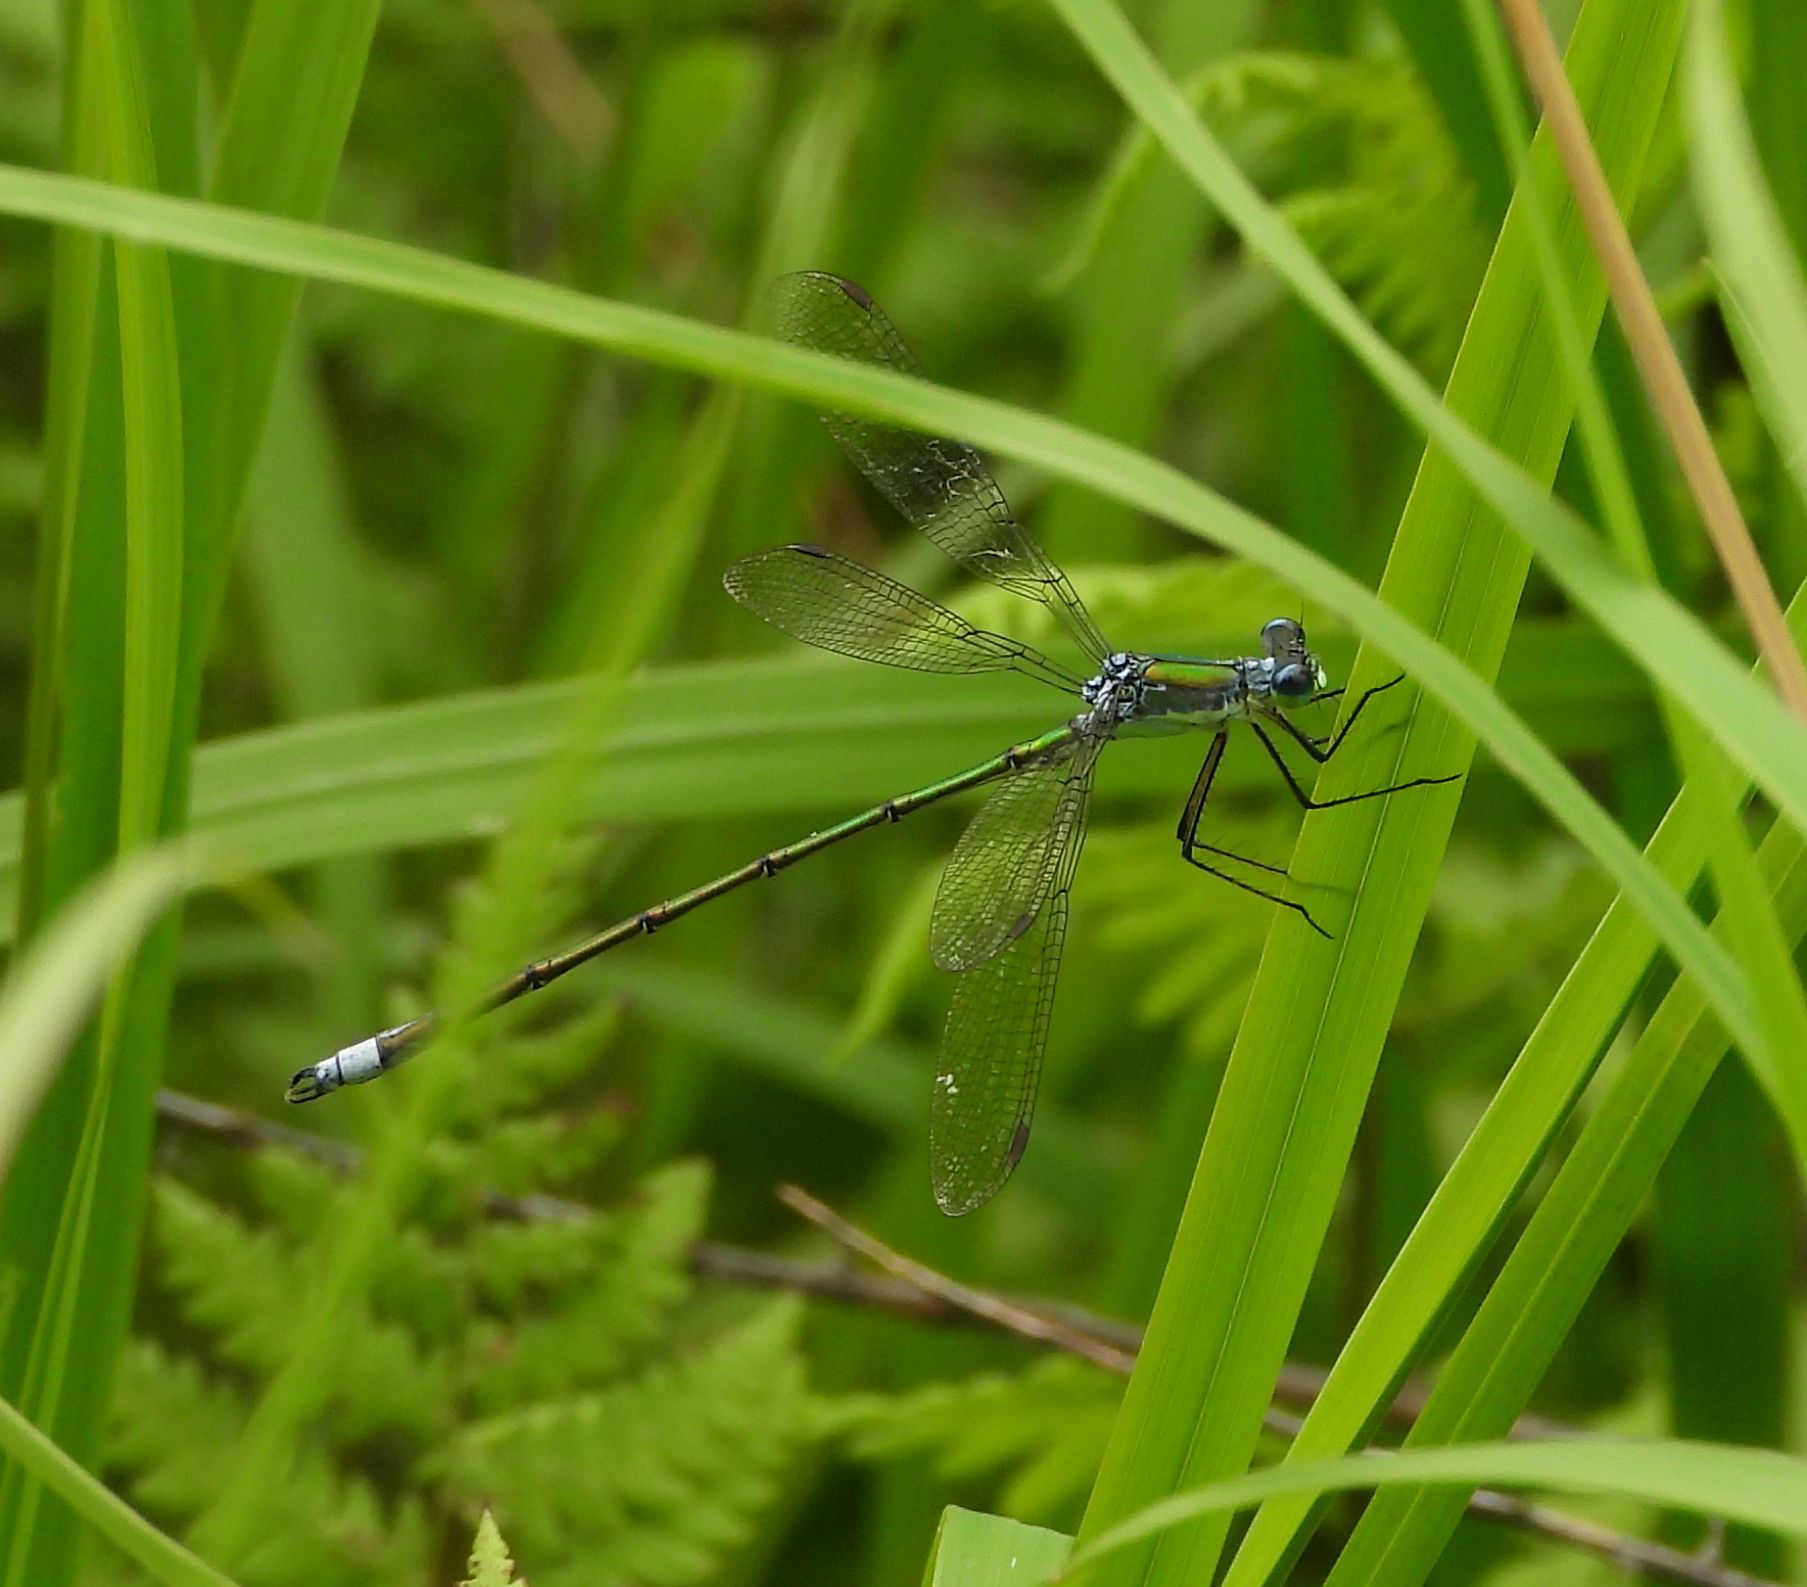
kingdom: Animalia
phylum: Arthropoda
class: Insecta
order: Odonata
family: Lestidae
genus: Lestes
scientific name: Lestes inaequalis
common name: Elegant spreadwing
